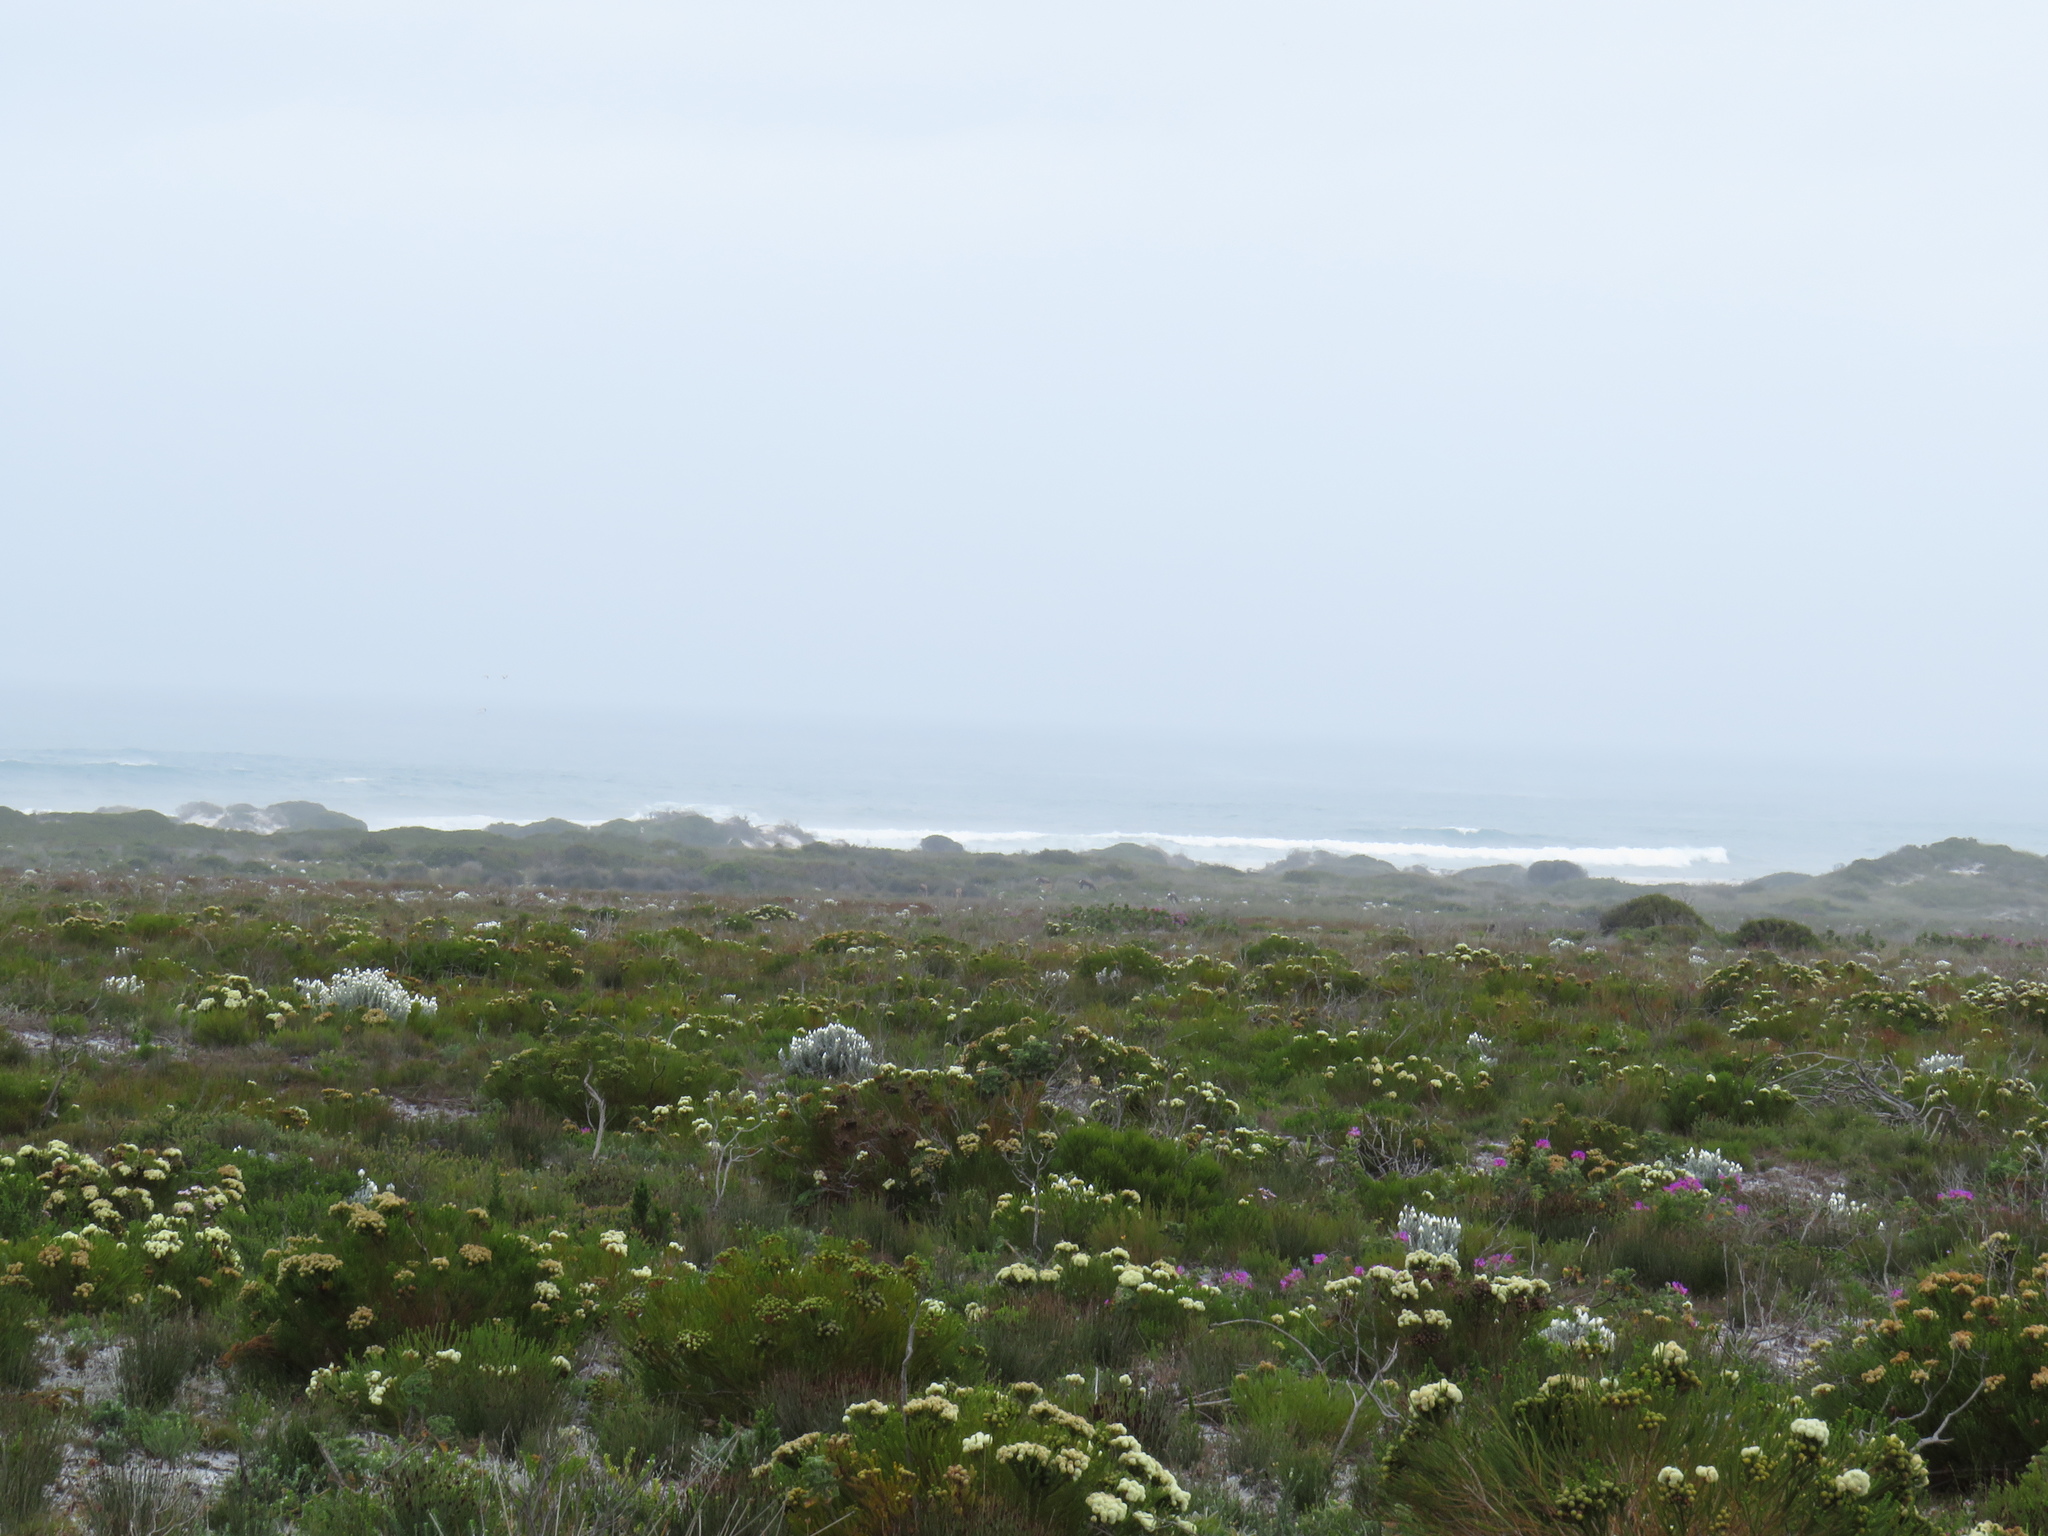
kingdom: Animalia
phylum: Chordata
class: Mammalia
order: Artiodactyla
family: Bovidae
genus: Damaliscus
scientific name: Damaliscus pygargus
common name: Bontebok
